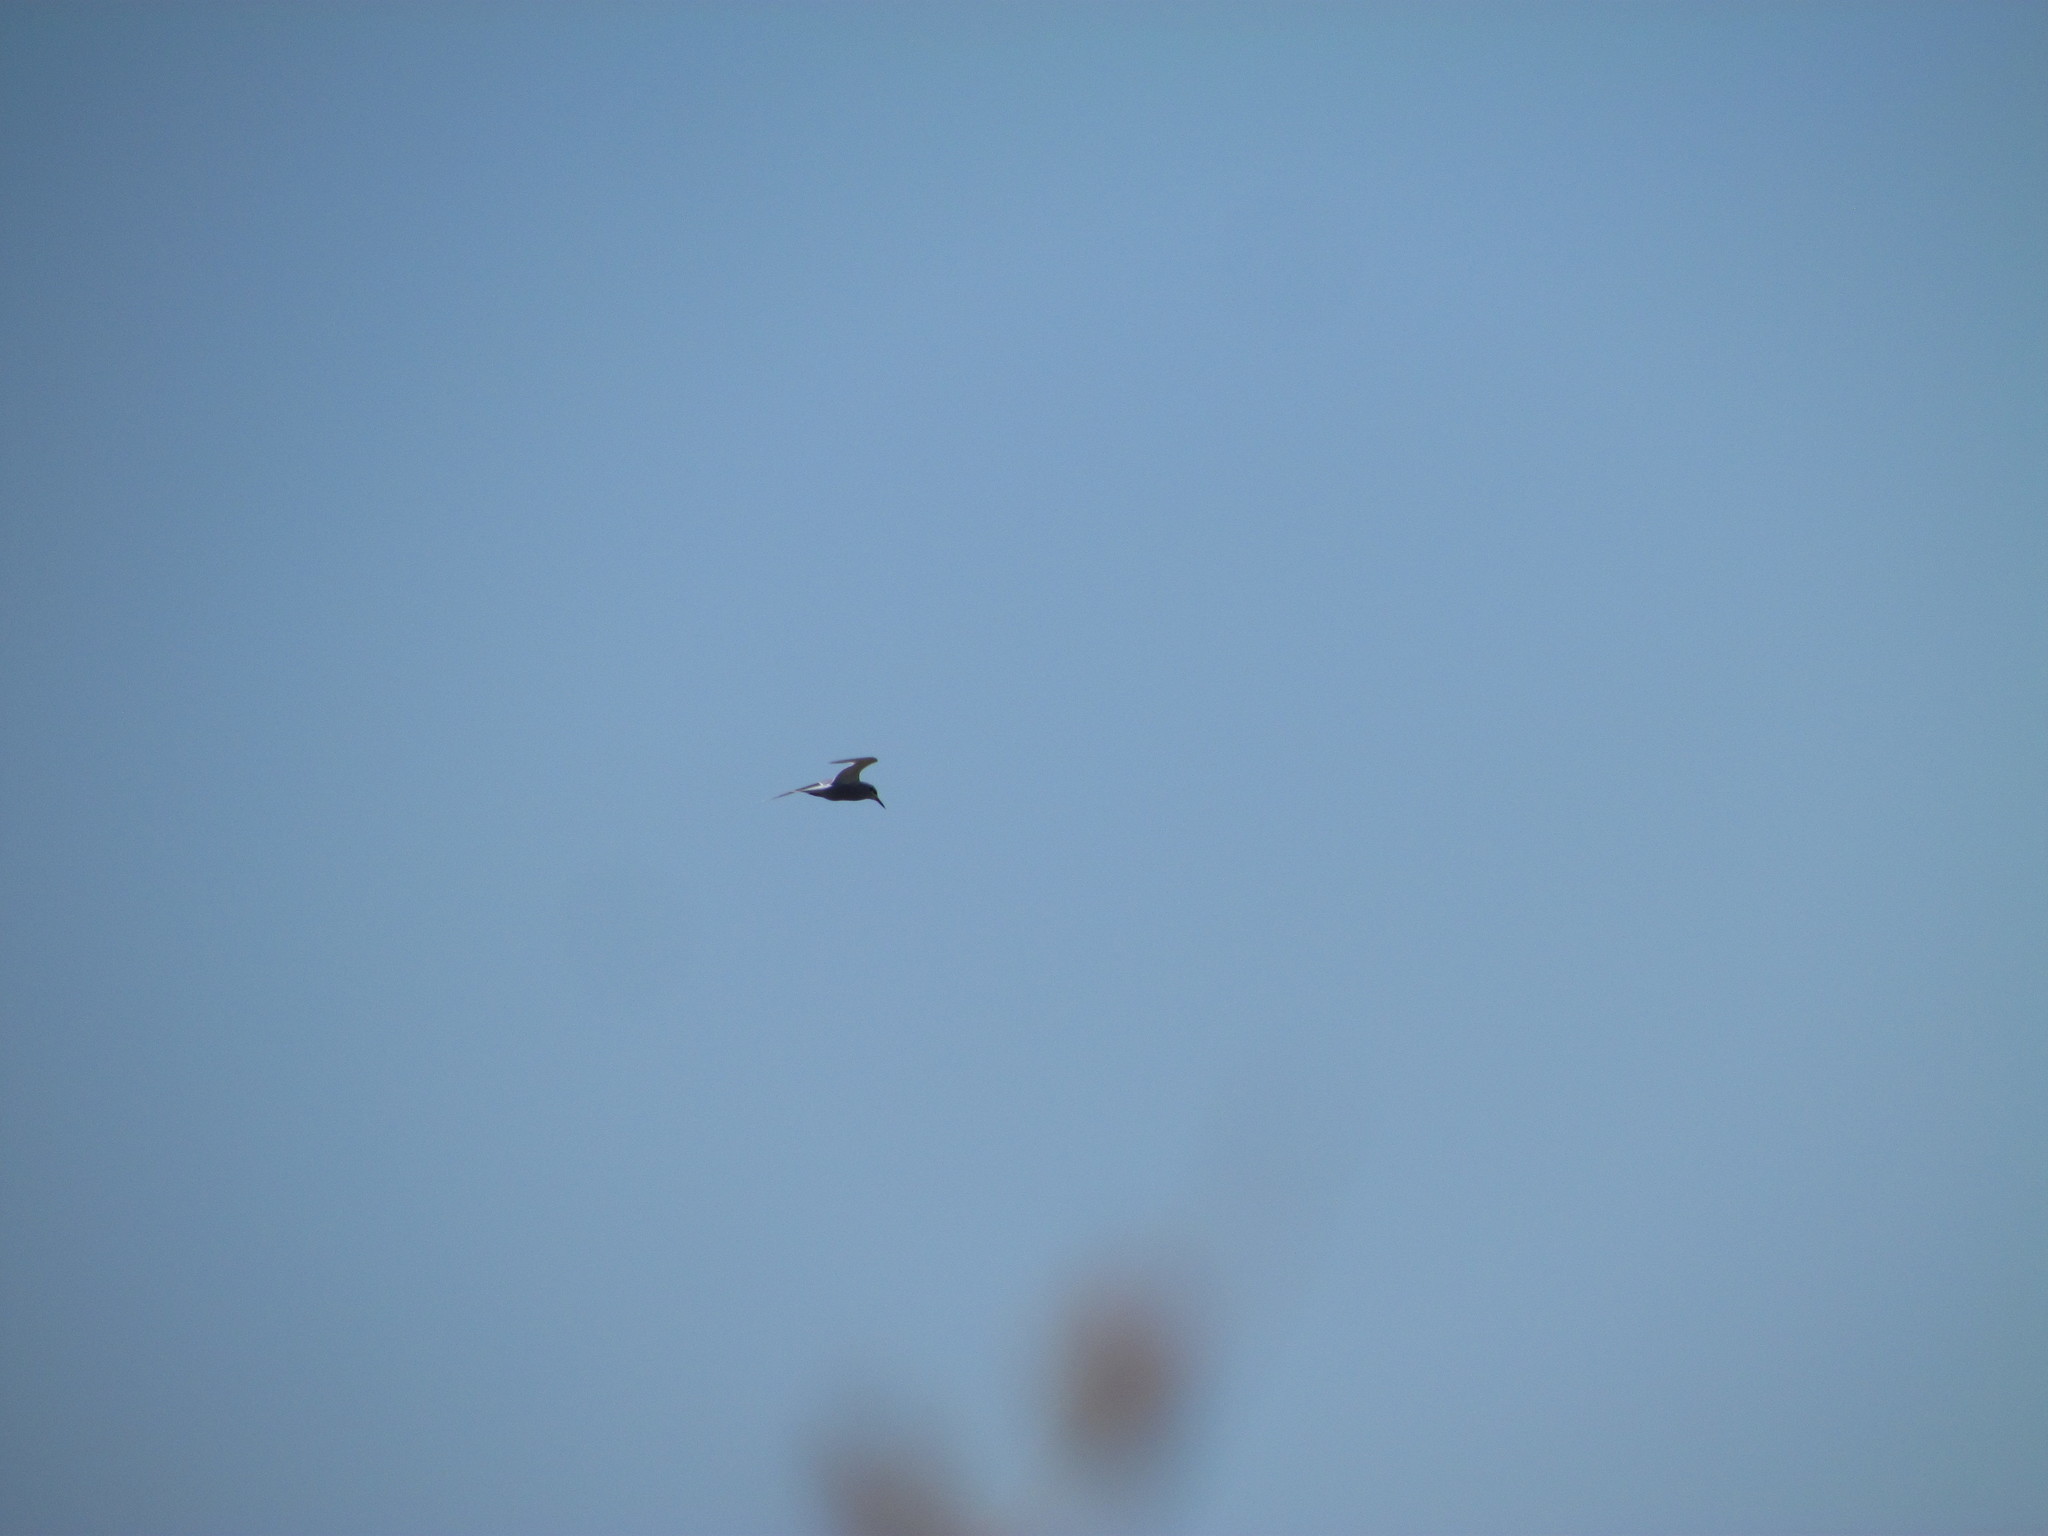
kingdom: Animalia
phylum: Chordata
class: Aves
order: Charadriiformes
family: Laridae
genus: Sterna
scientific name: Sterna trudeaui
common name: Snowy-crowned tern
